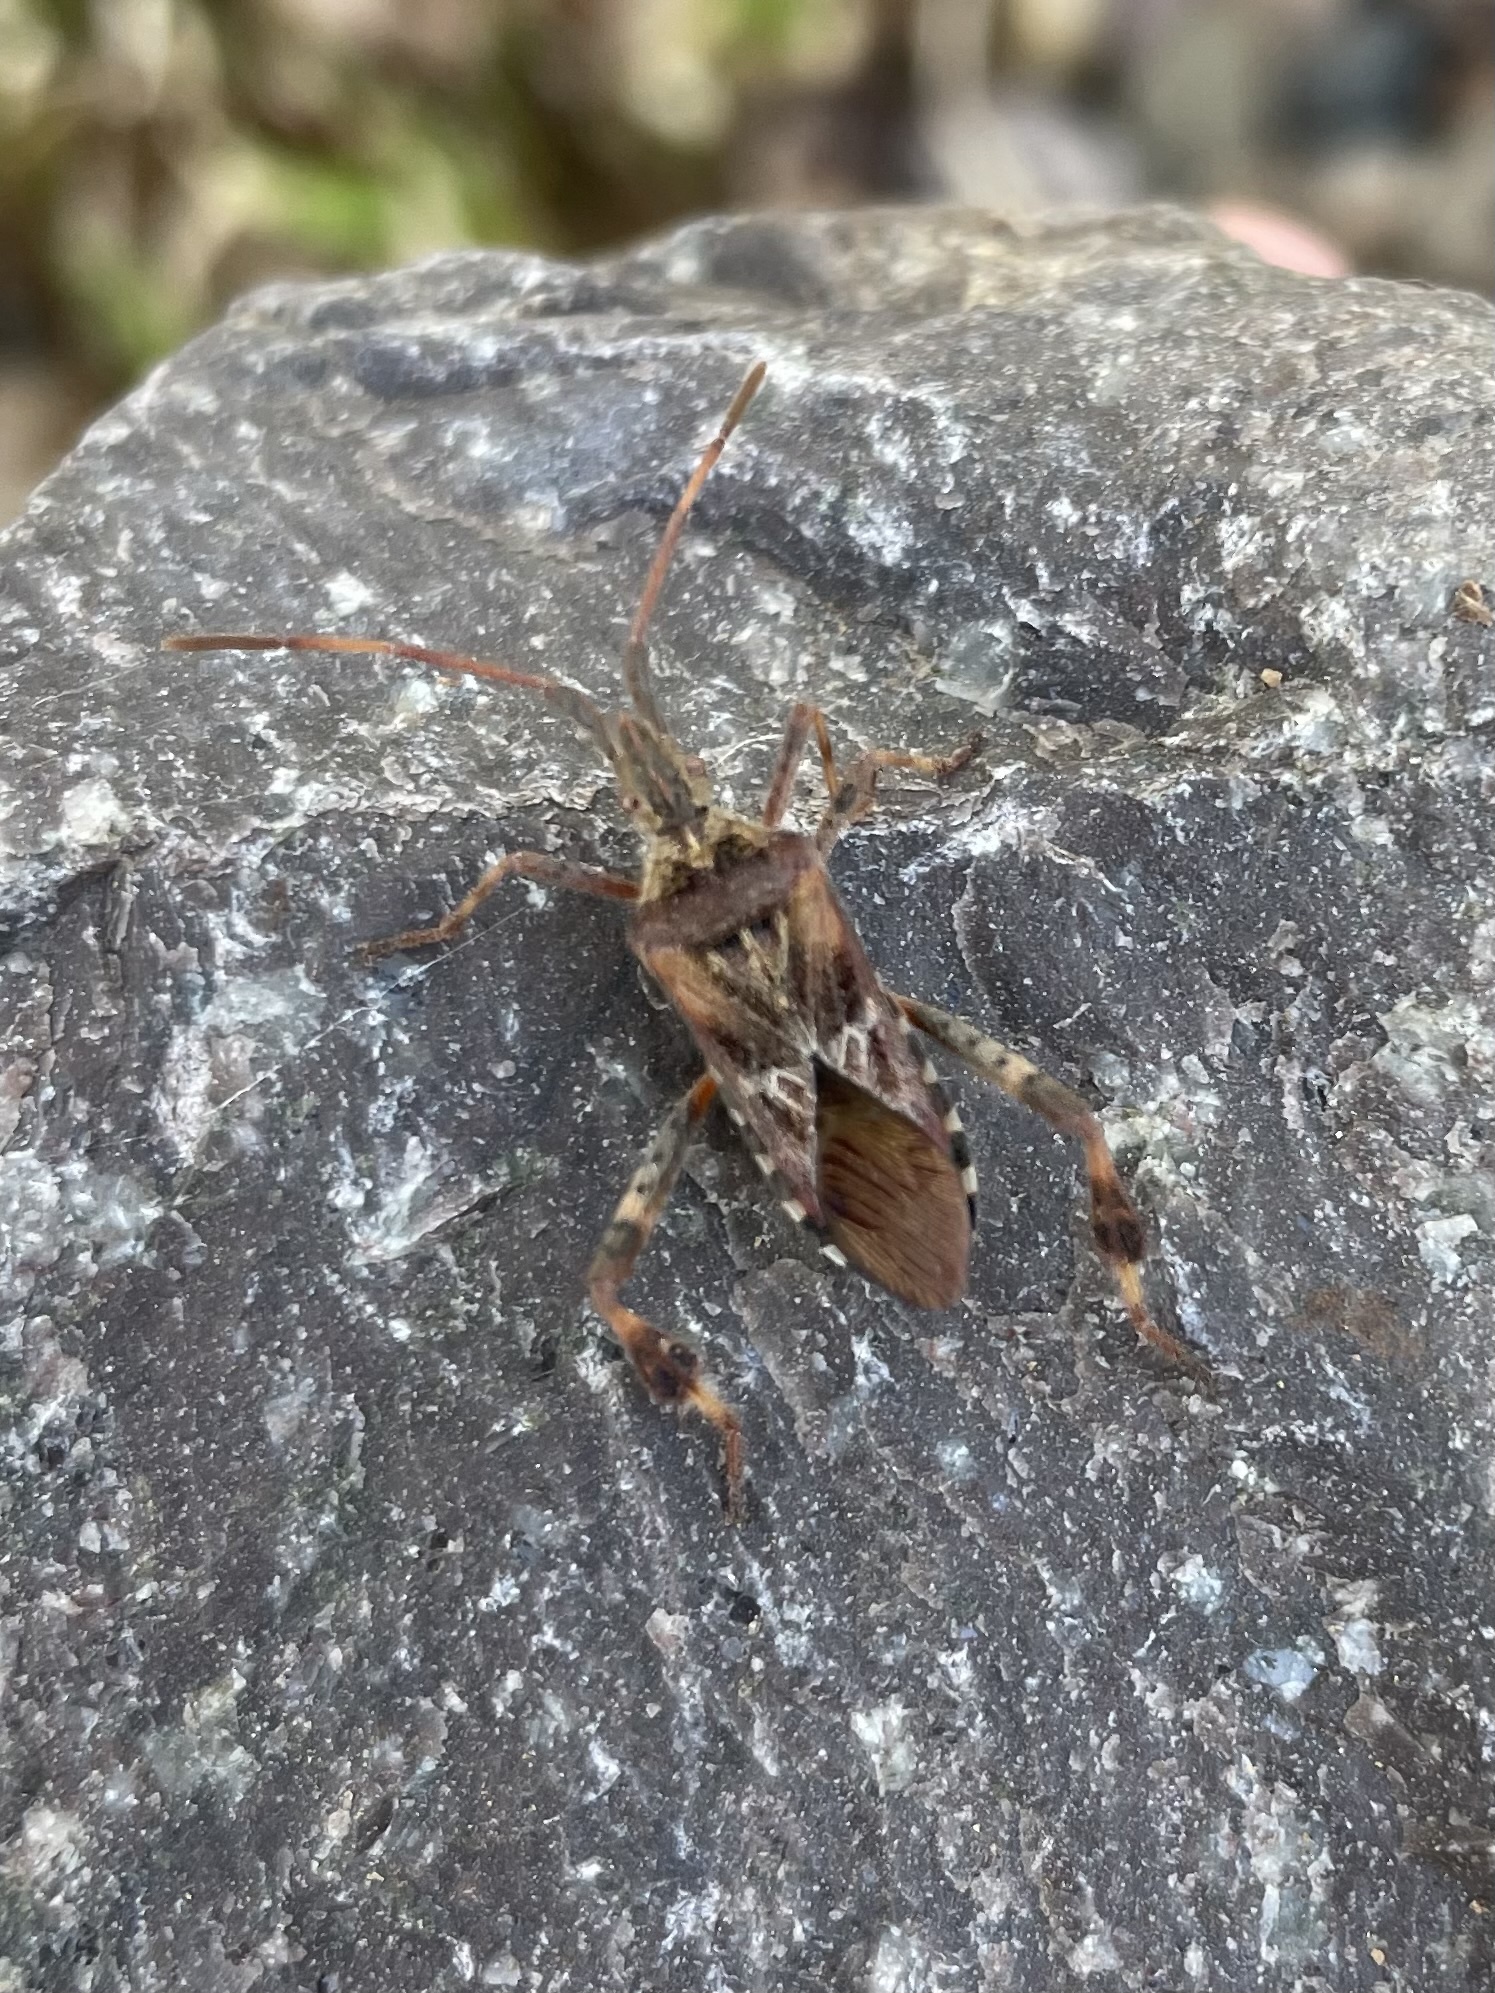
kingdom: Animalia
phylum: Arthropoda
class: Insecta
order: Hemiptera
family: Coreidae
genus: Leptoglossus
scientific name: Leptoglossus occidentalis
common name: Western conifer-seed bug
